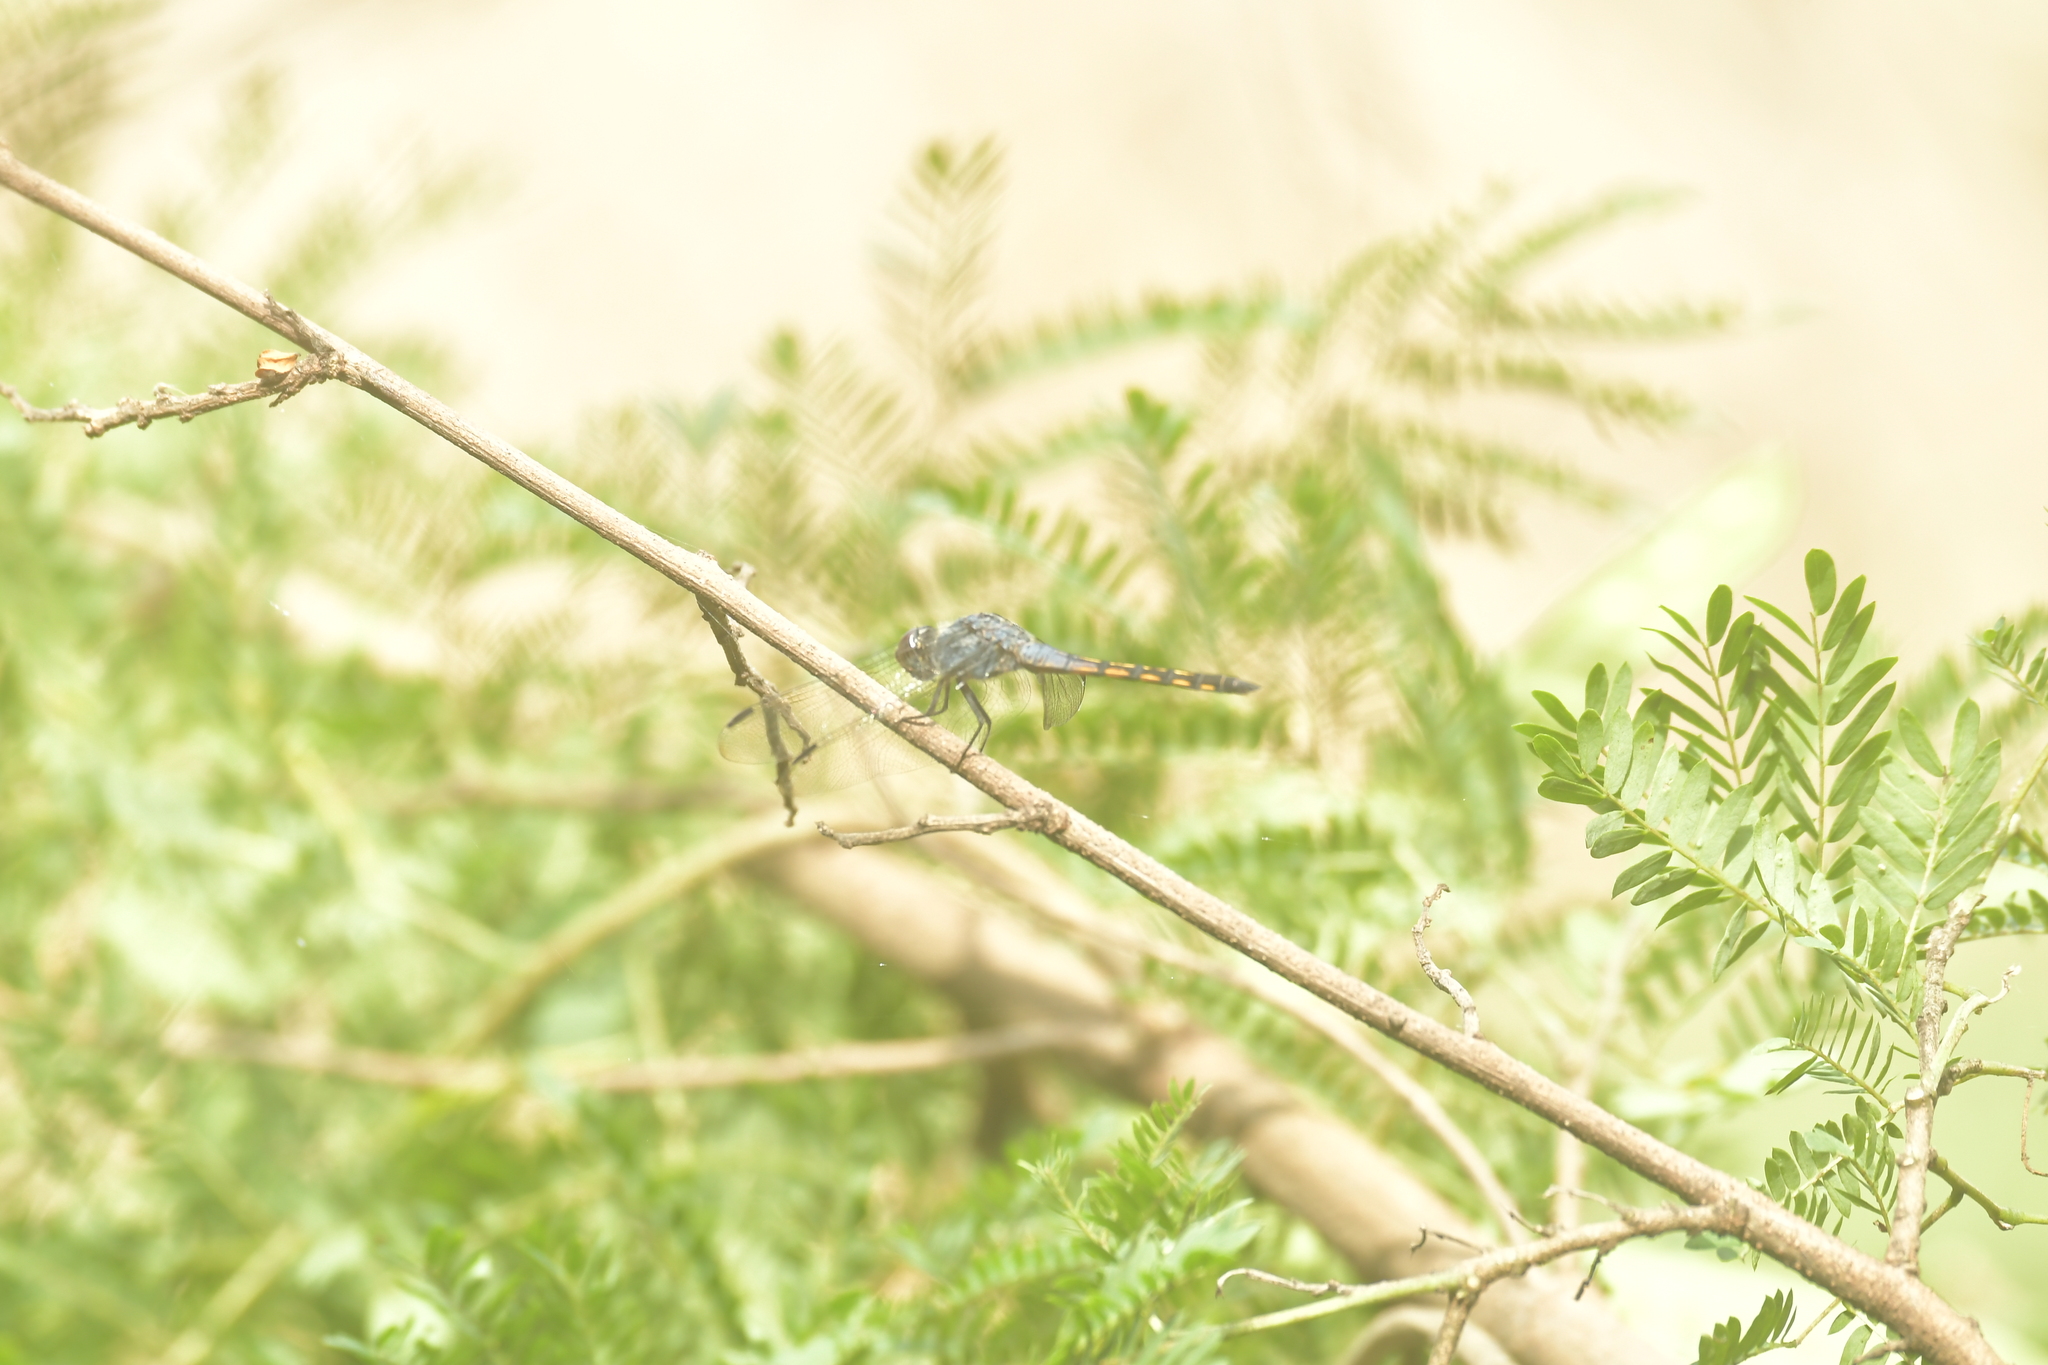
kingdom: Animalia
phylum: Arthropoda
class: Insecta
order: Odonata
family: Libellulidae
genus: Potamarcha
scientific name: Potamarcha congener
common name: Blue chaser
